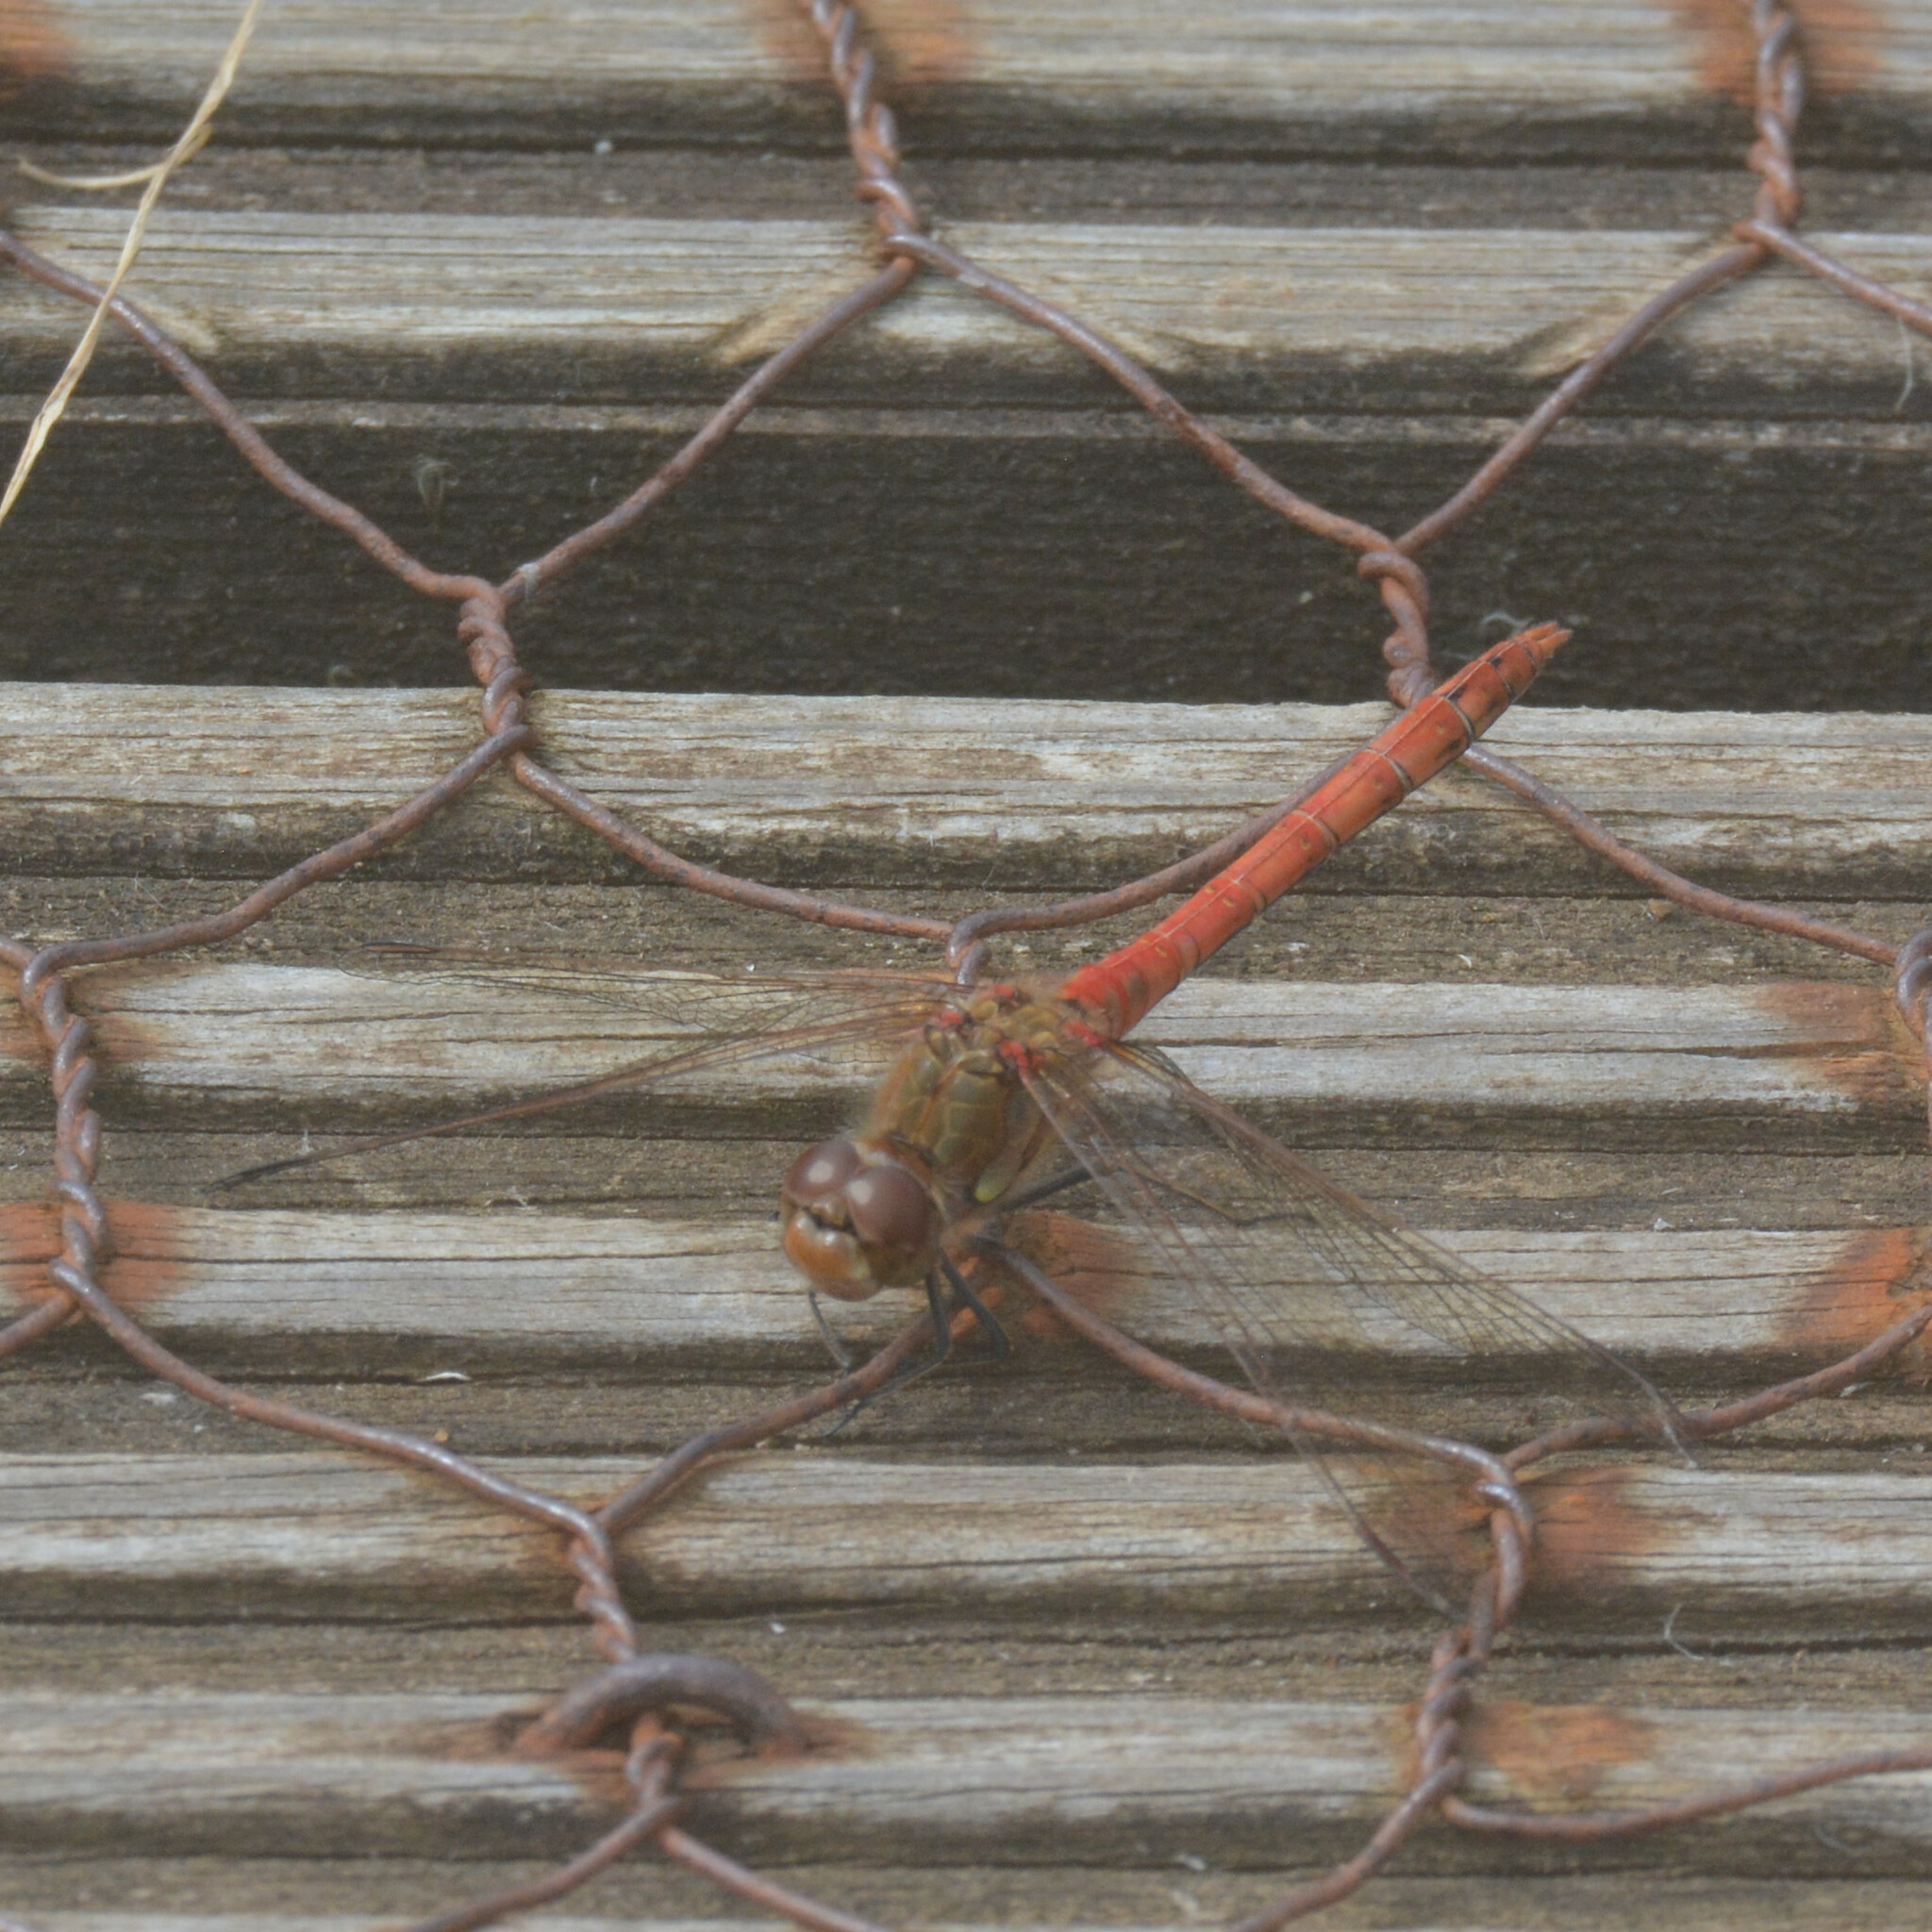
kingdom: Animalia
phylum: Arthropoda
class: Insecta
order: Odonata
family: Libellulidae
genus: Sympetrum
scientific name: Sympetrum striolatum
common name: Common darter
